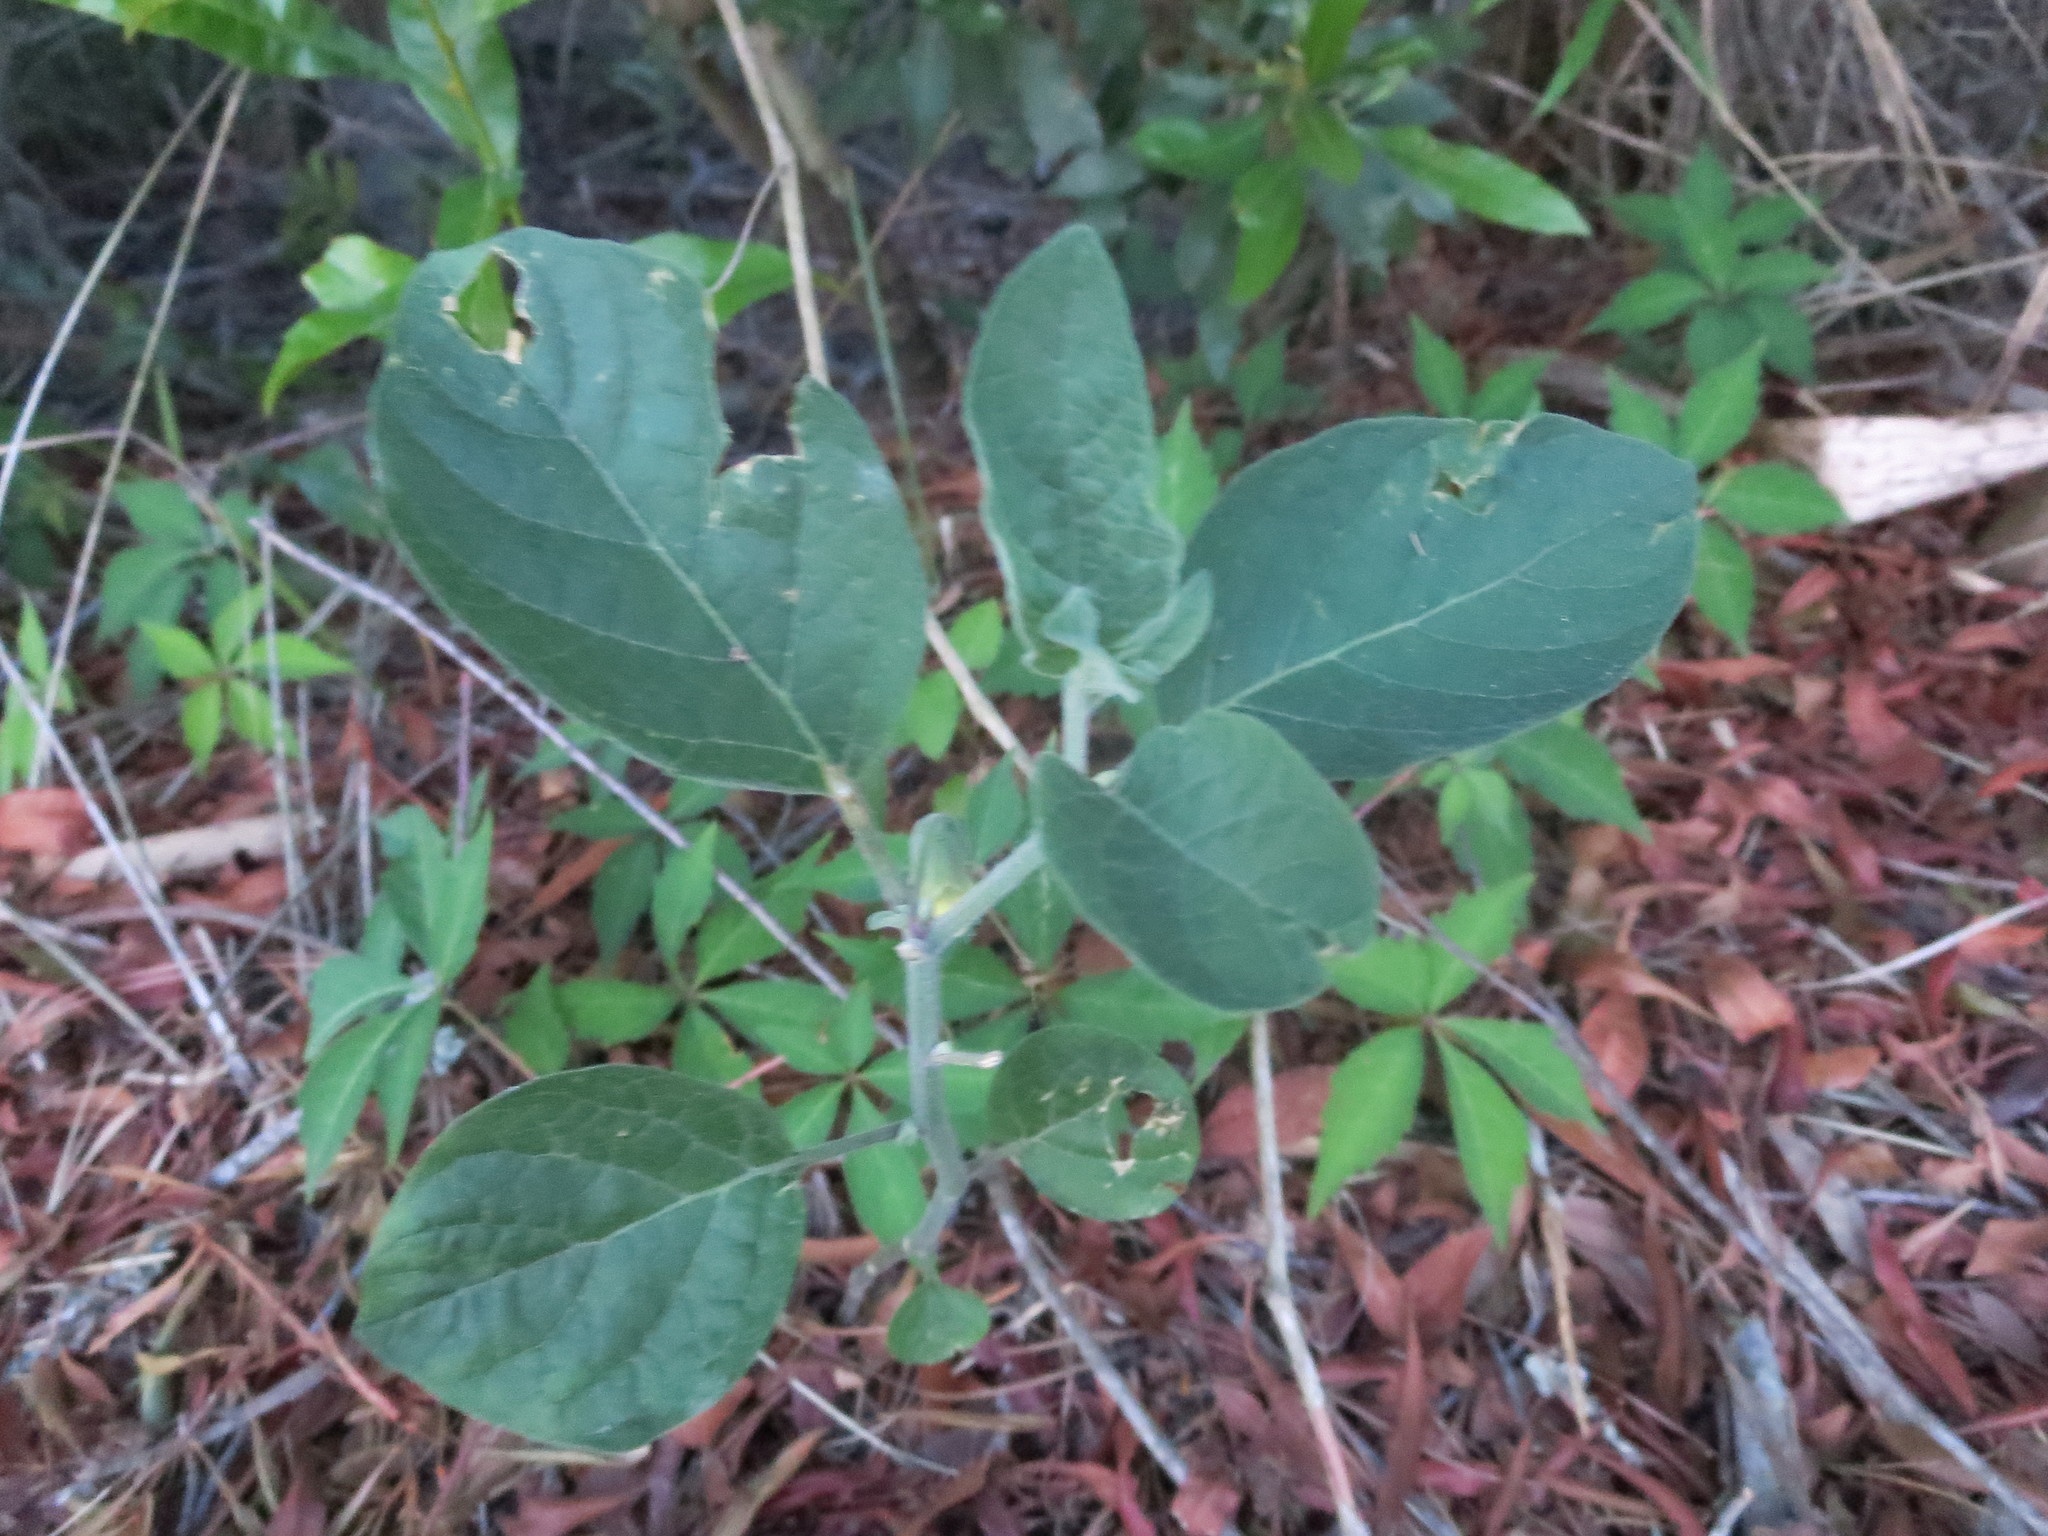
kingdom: Plantae
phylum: Tracheophyta
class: Magnoliopsida
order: Solanales
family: Solanaceae
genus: Physalis
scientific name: Physalis walteri
